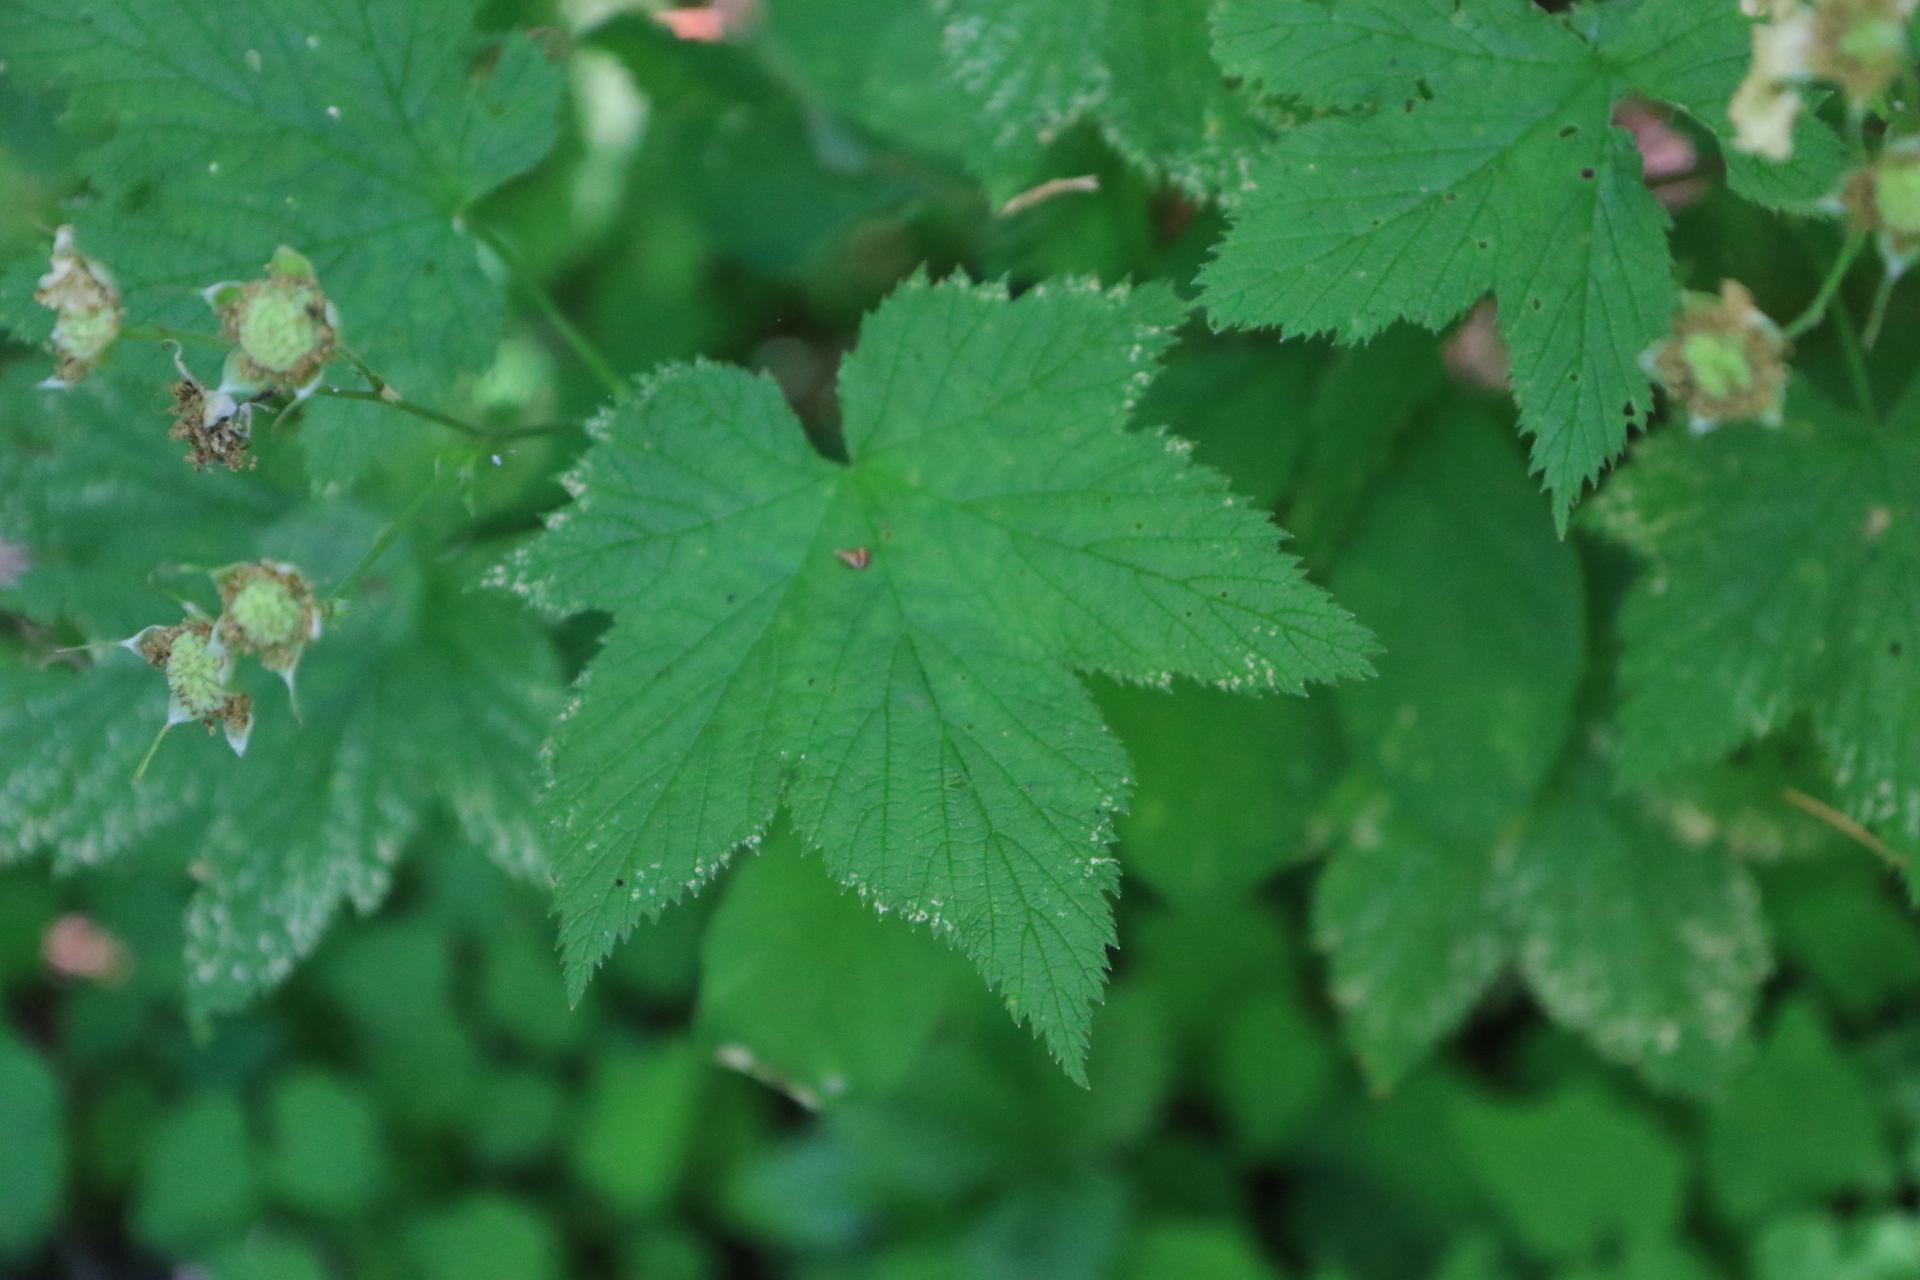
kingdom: Plantae
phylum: Tracheophyta
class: Magnoliopsida
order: Rosales
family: Rosaceae
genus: Rubus
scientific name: Rubus parviflorus
